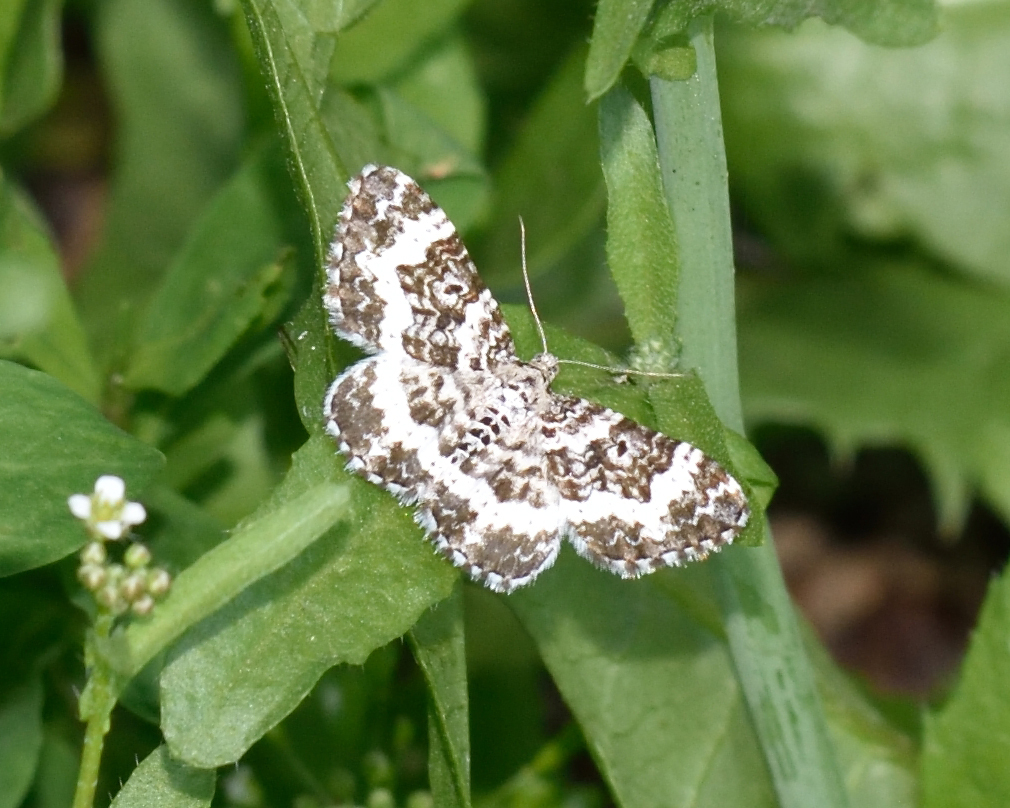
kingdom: Animalia
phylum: Arthropoda
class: Insecta
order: Lepidoptera
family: Geometridae
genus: Epirrhoe
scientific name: Epirrhoe tristata
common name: Small argent & sable
